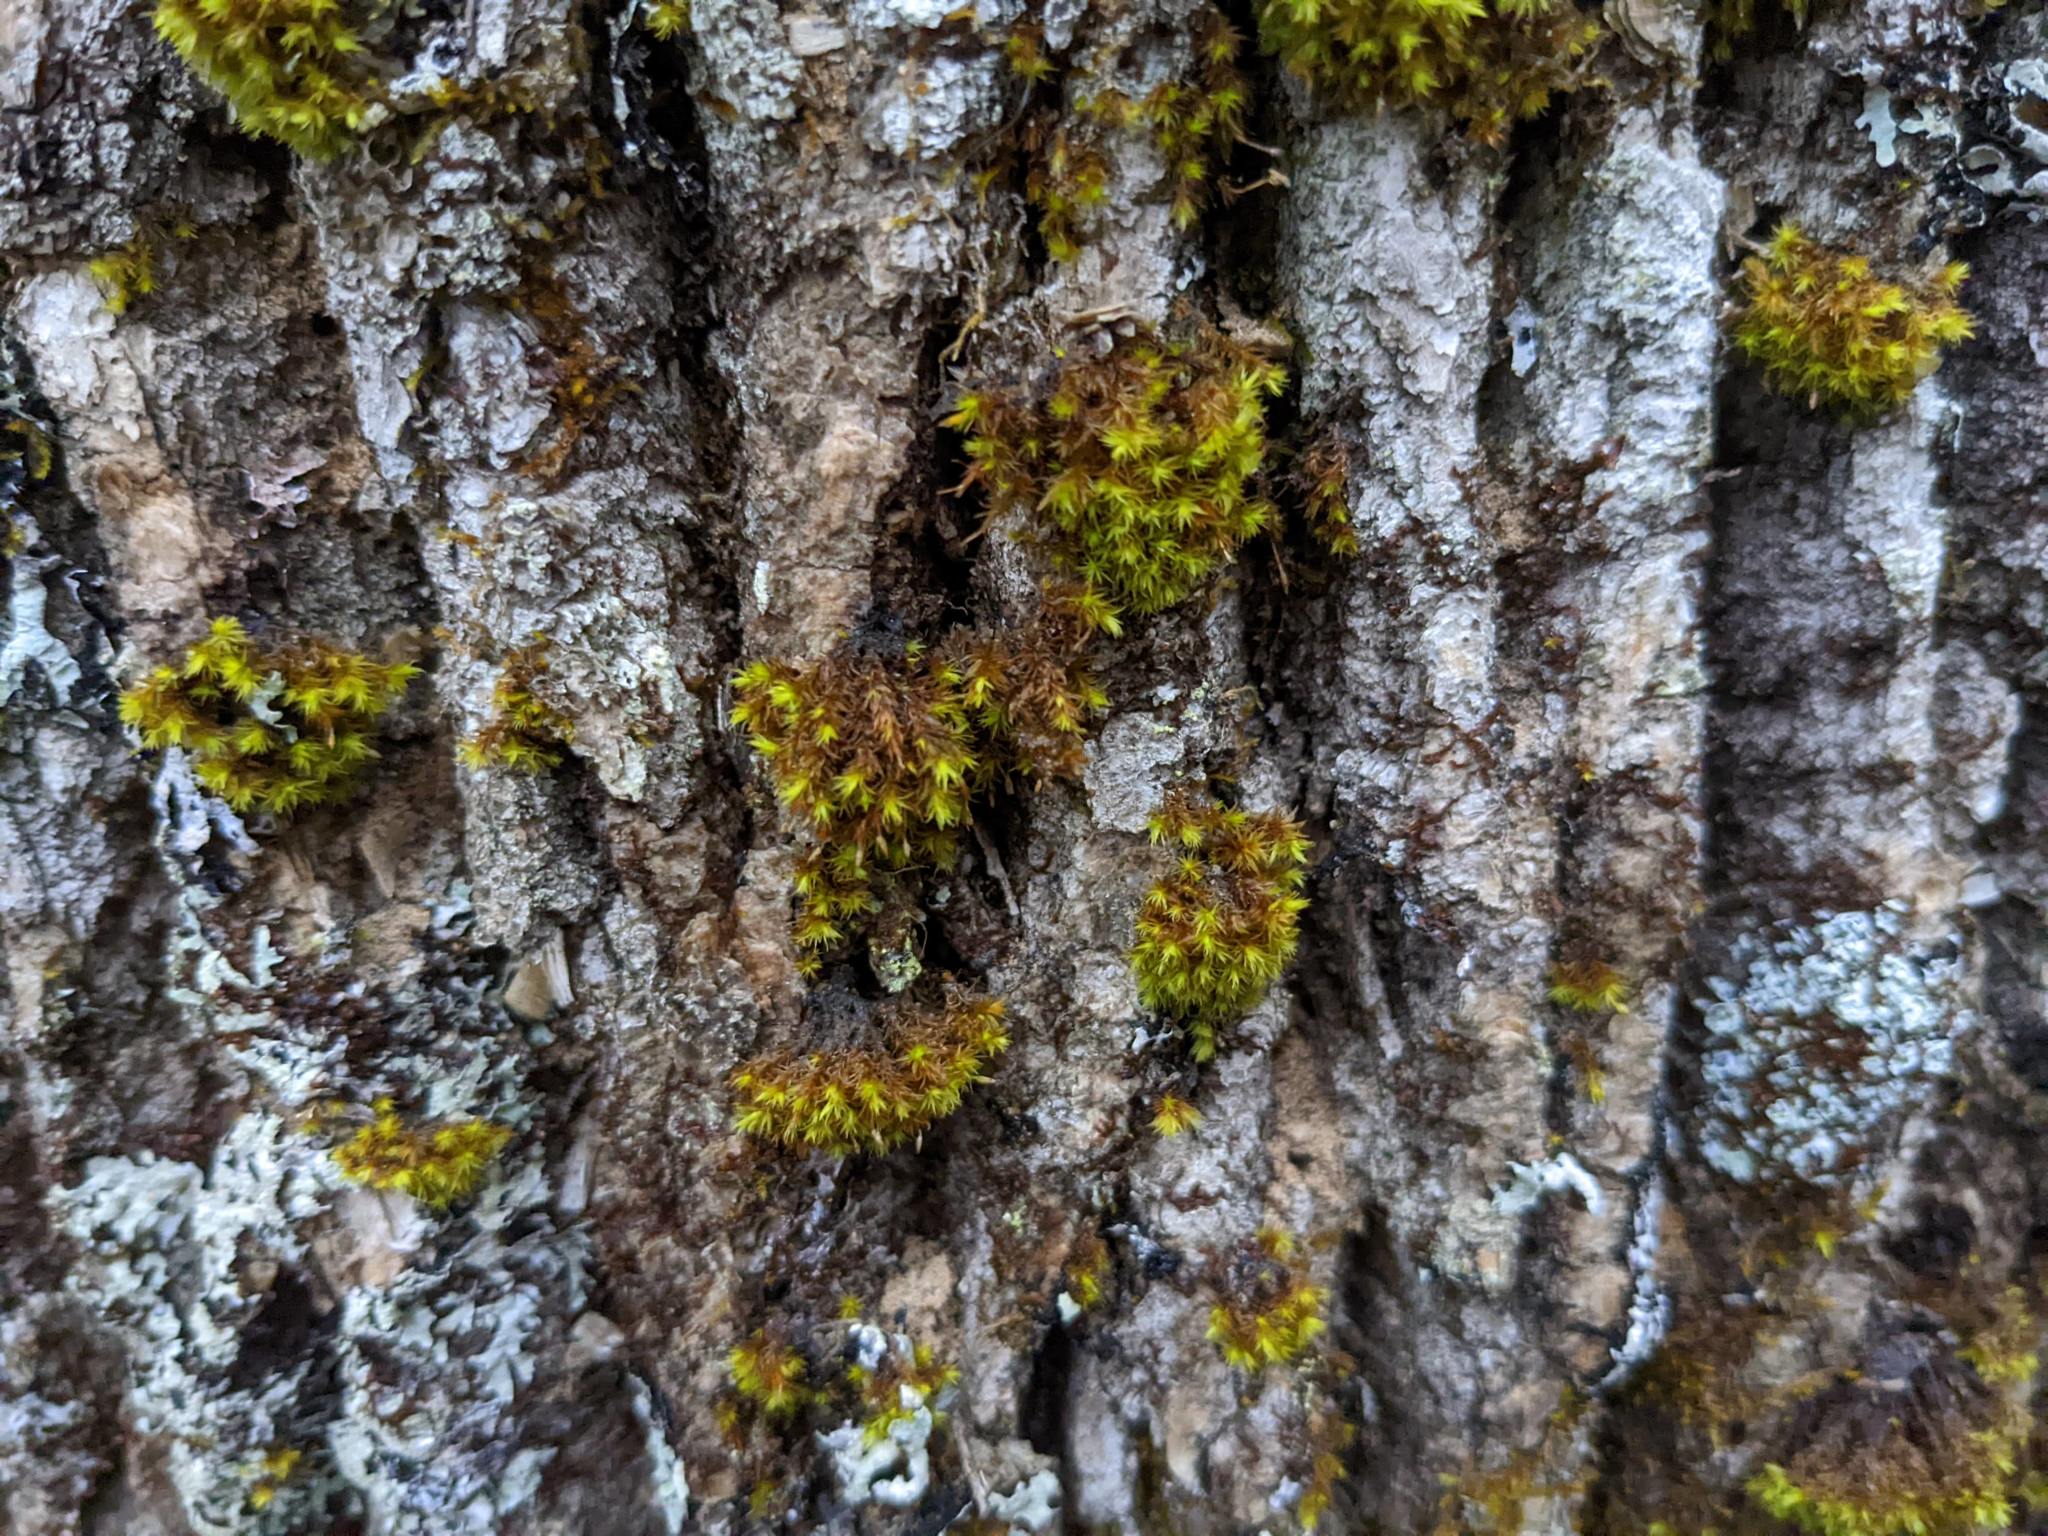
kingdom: Plantae
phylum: Bryophyta
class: Bryopsida
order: Orthotrichales
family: Orthotrichaceae
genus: Ulota
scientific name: Ulota crispa
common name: Crisped pincushion moss
